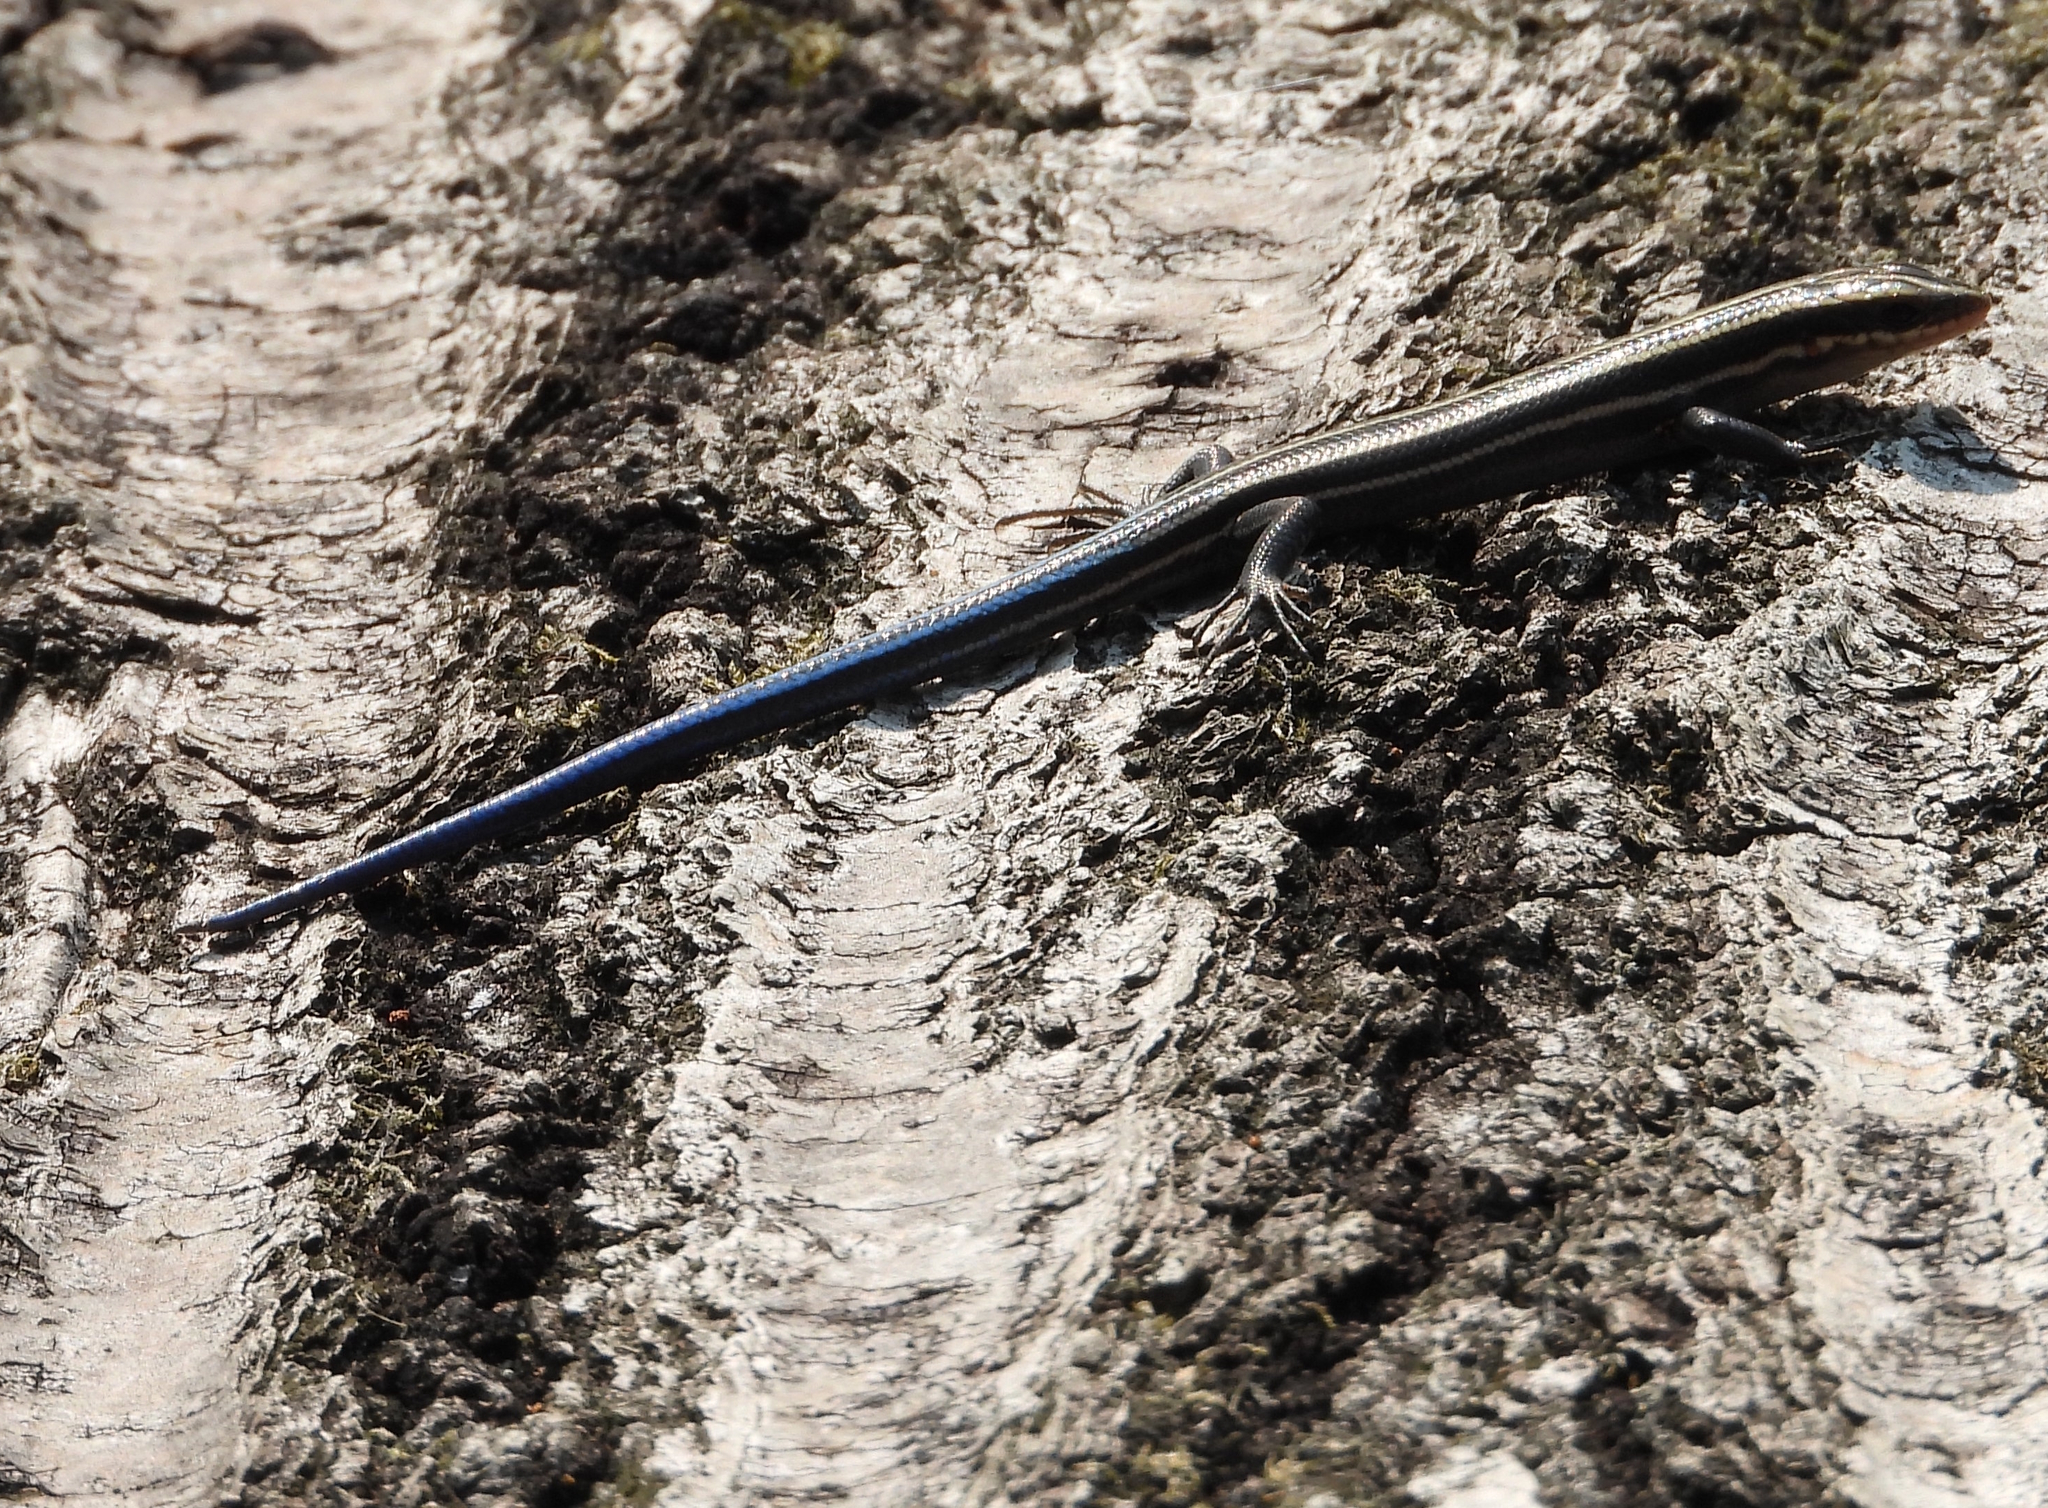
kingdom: Animalia
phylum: Chordata
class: Squamata
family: Scincidae
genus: Plestiodon
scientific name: Plestiodon fasciatus
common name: Five-lined skink
